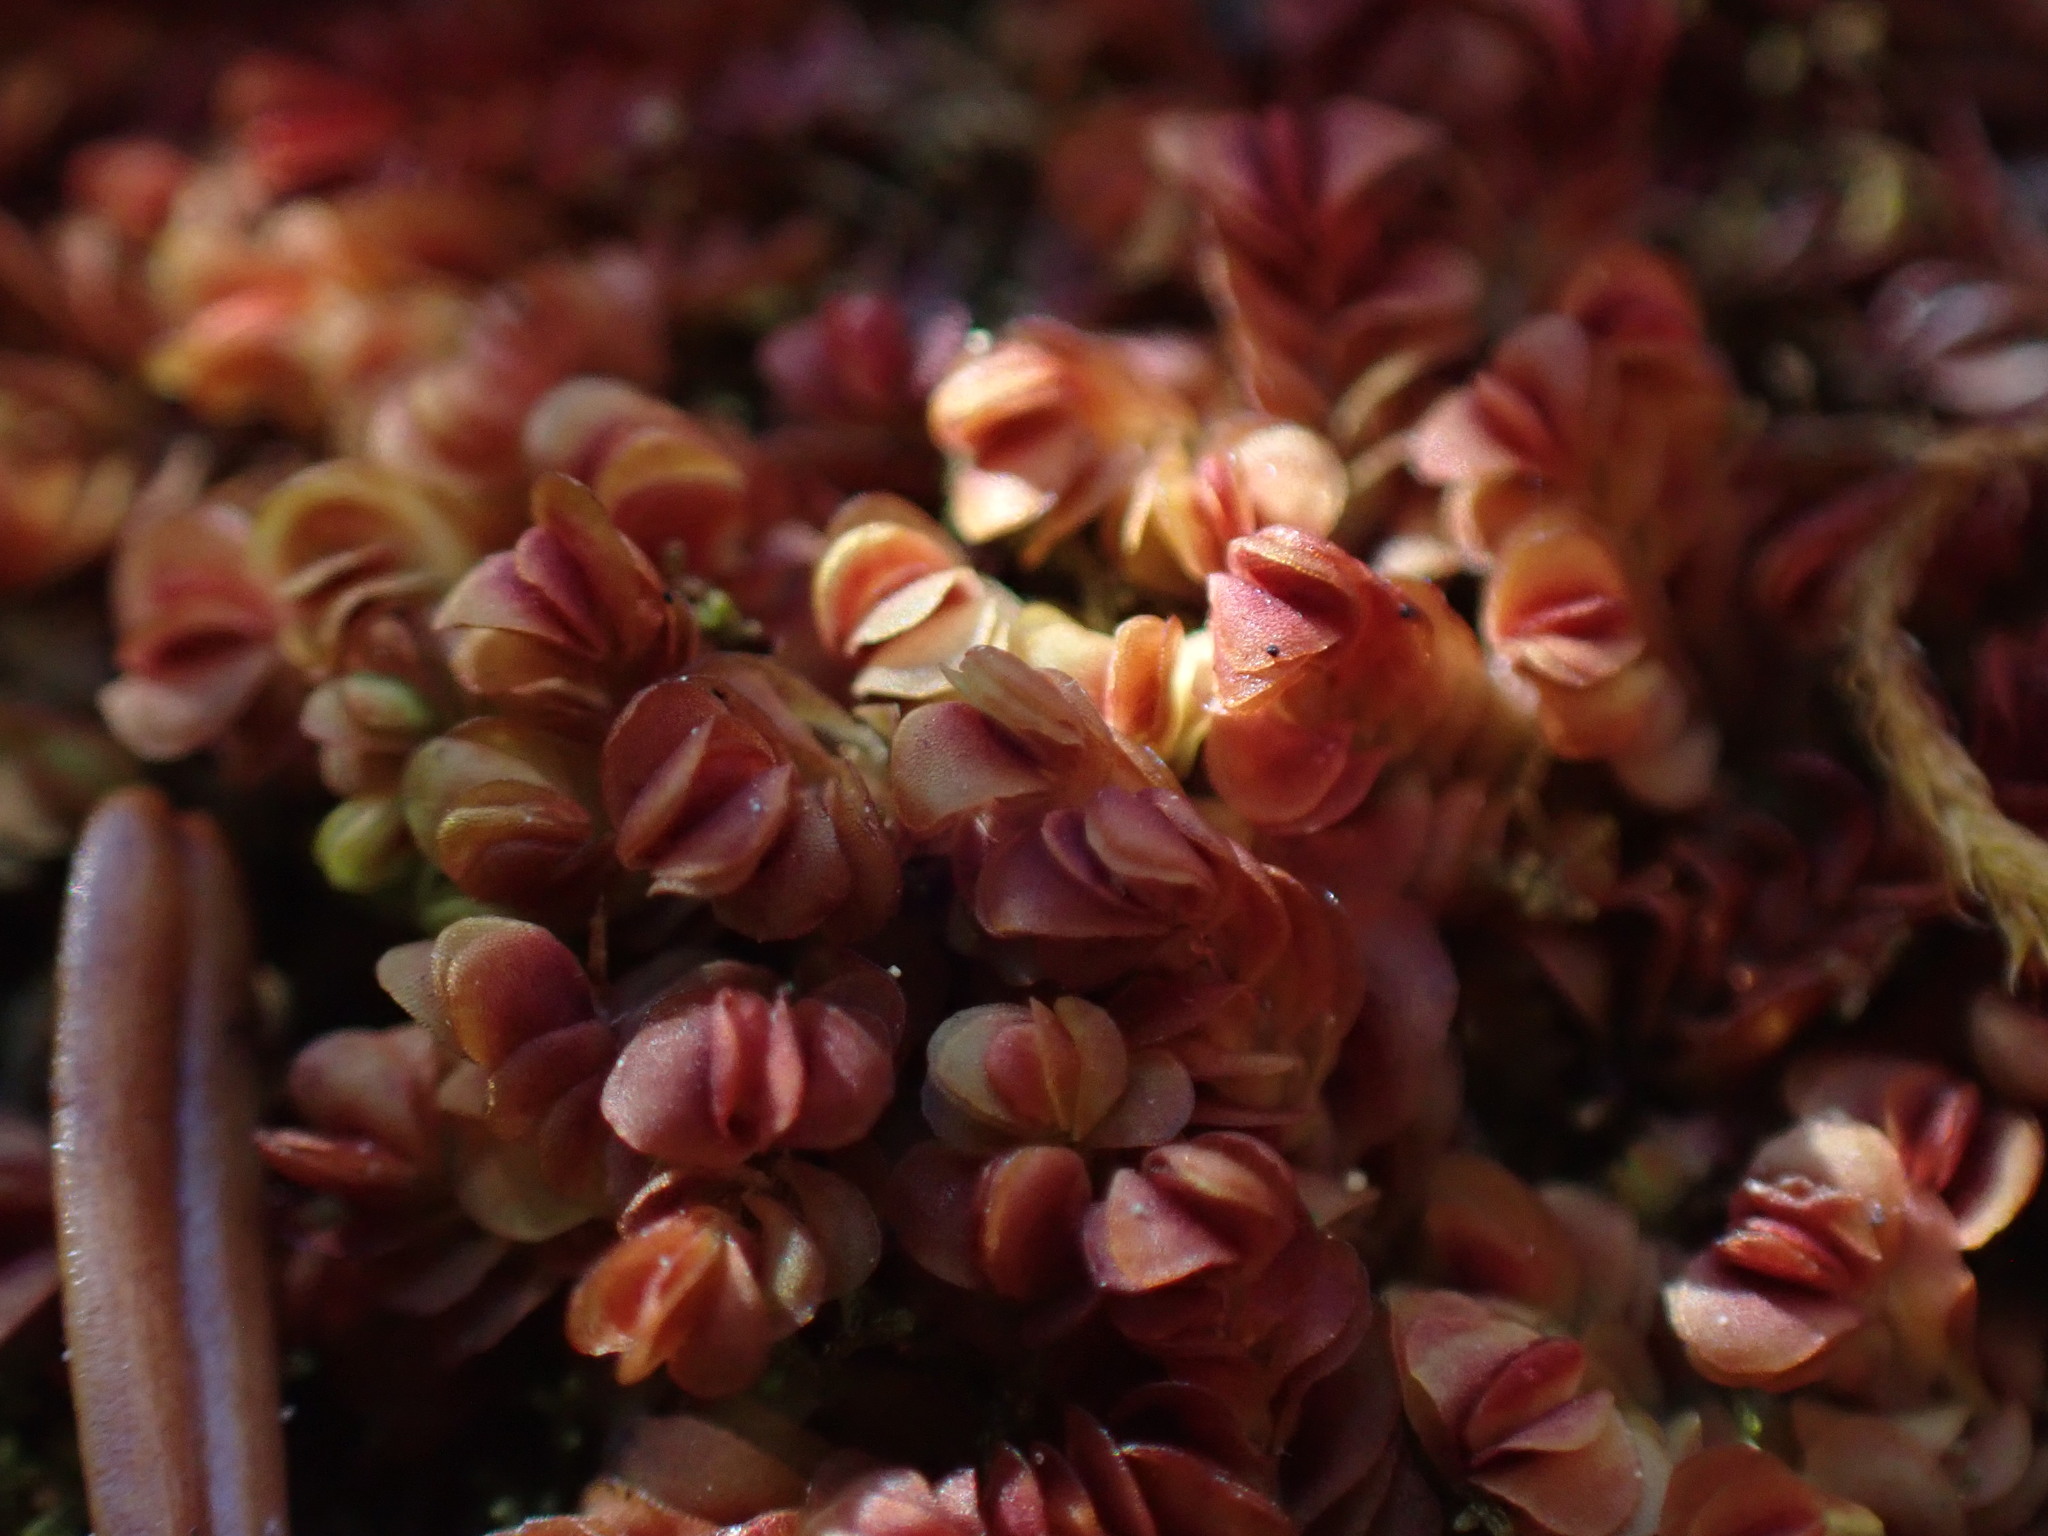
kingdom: Plantae
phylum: Marchantiophyta
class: Jungermanniopsida
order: Jungermanniales
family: Myliaceae
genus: Mylia
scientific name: Mylia taylorii
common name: Taylor s flapwort
